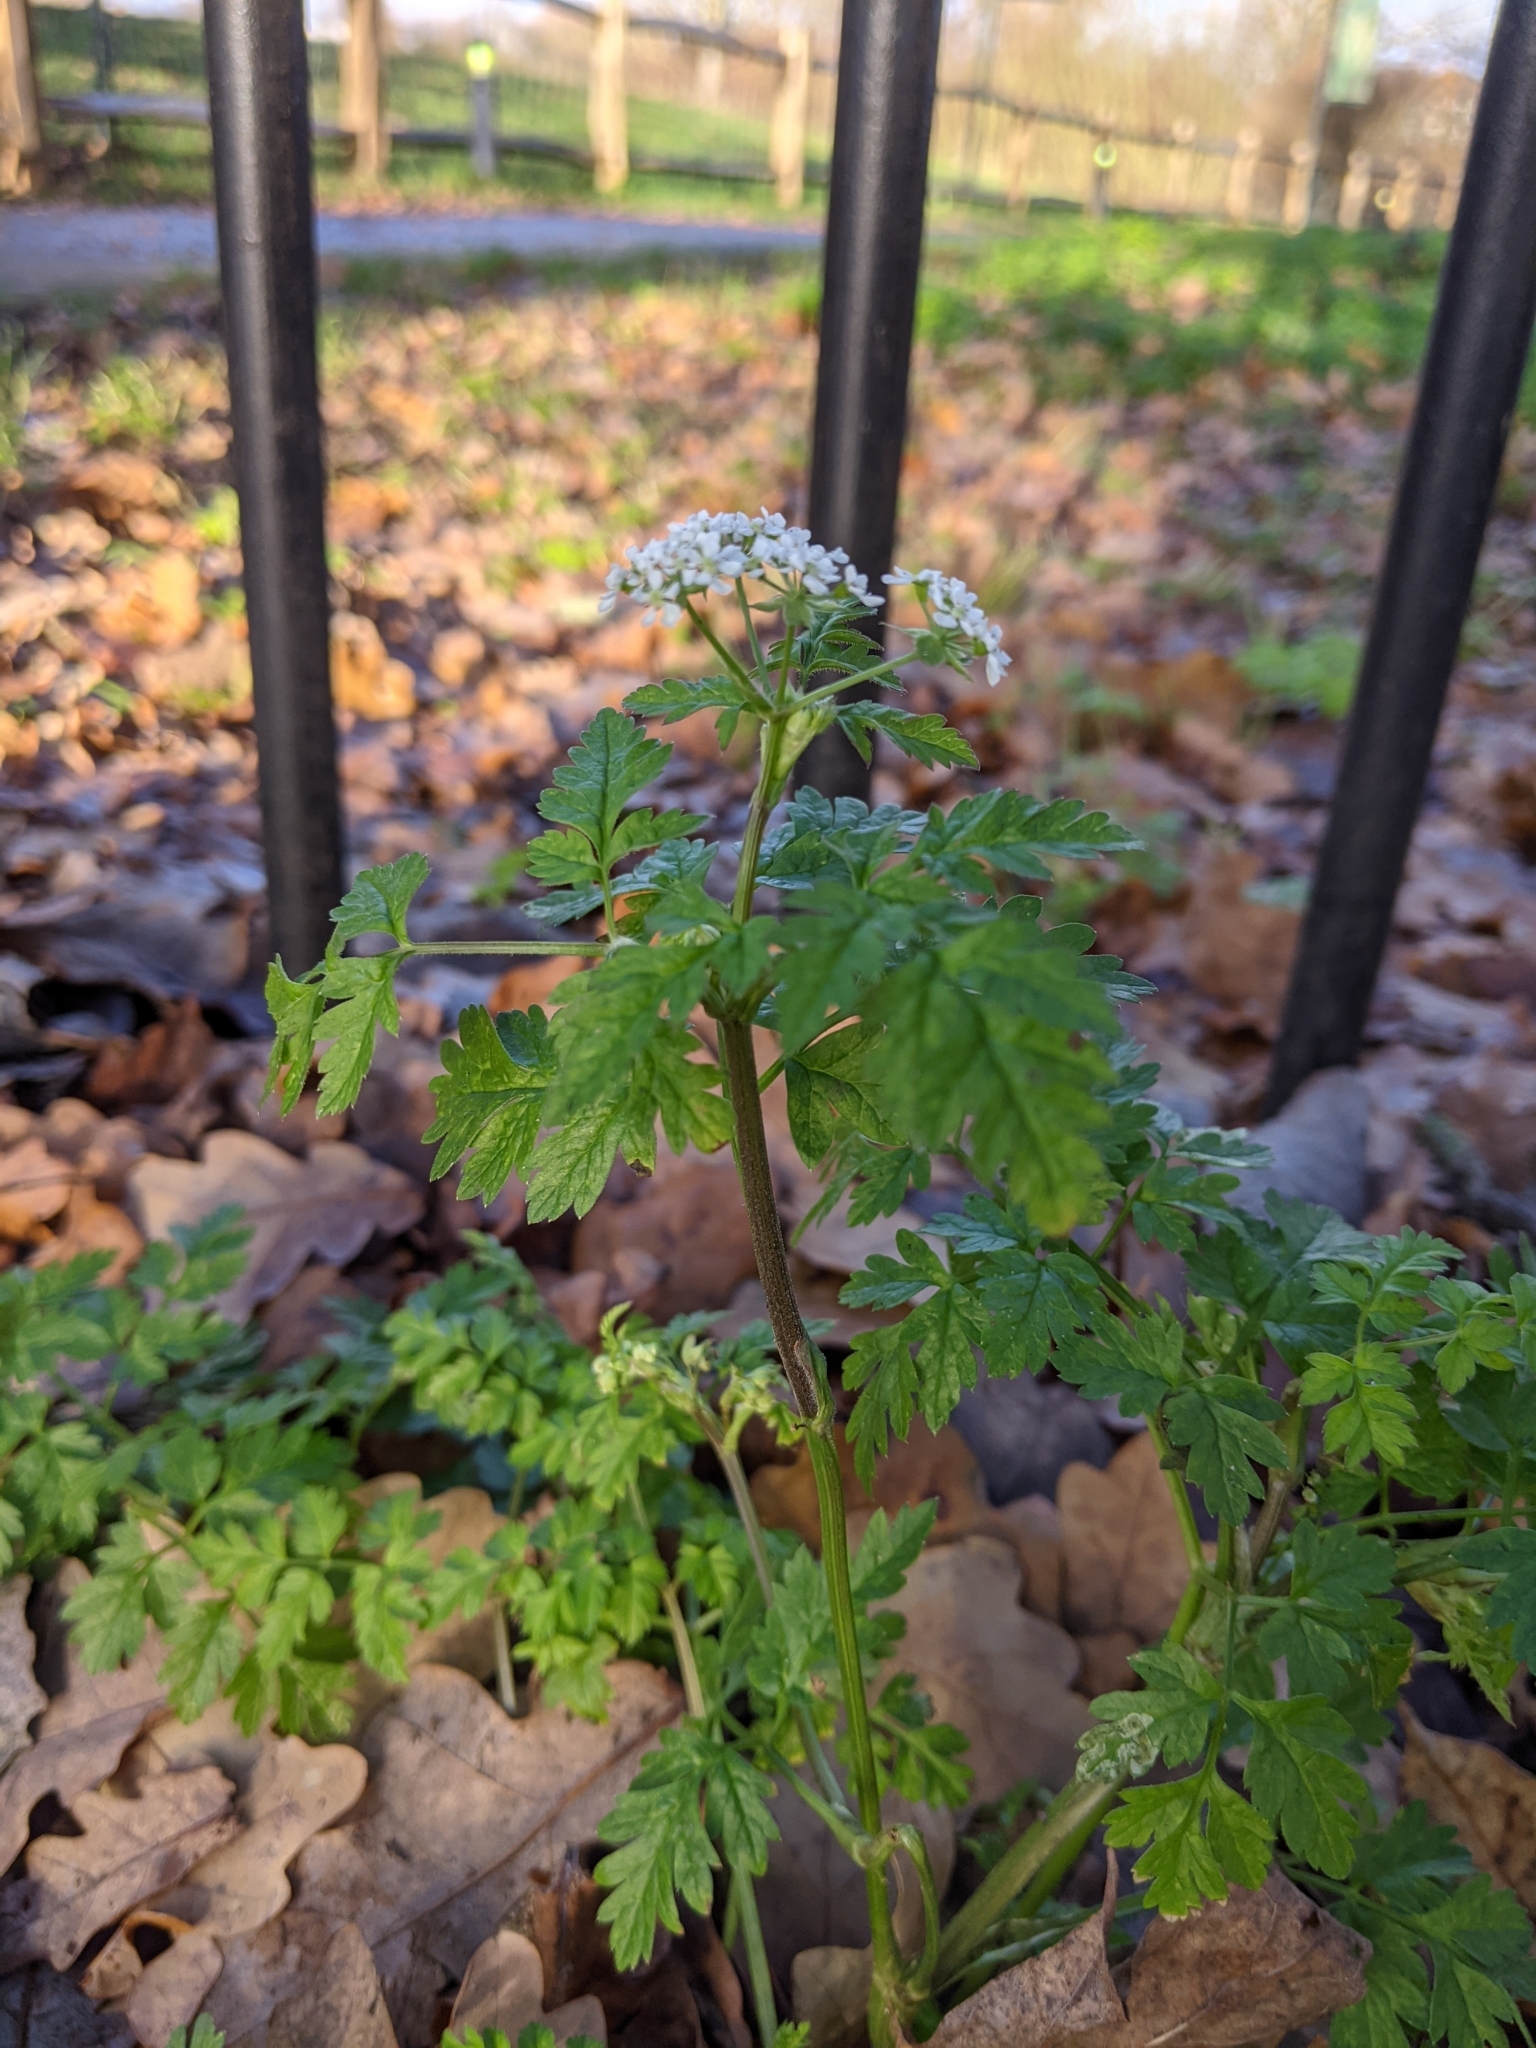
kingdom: Plantae
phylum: Tracheophyta
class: Magnoliopsida
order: Apiales
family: Apiaceae
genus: Anthriscus
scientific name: Anthriscus sylvestris
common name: Cow parsley
